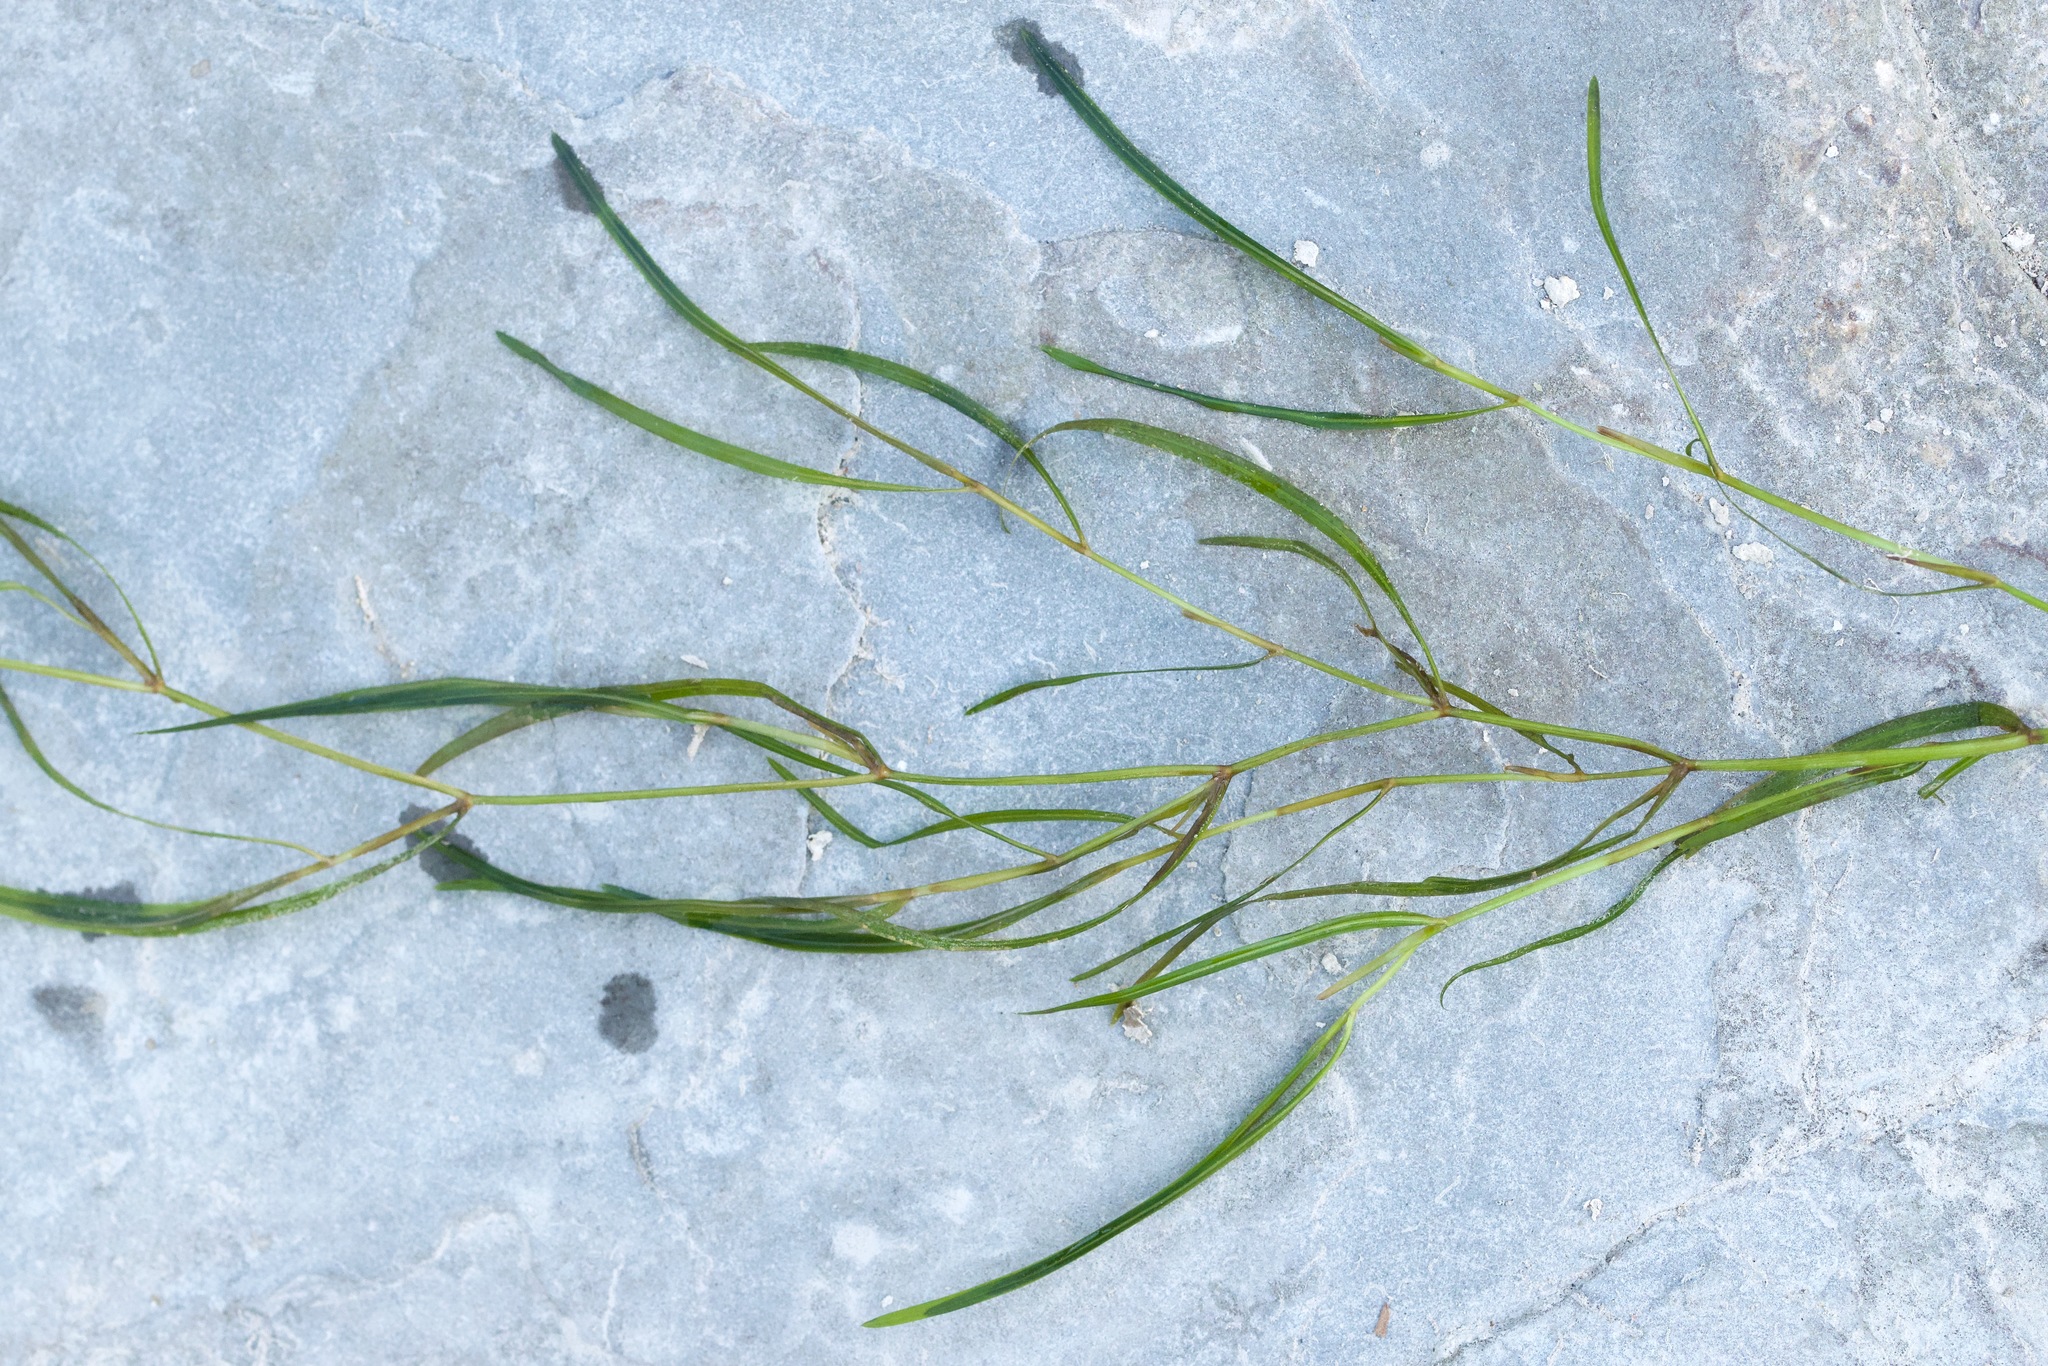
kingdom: Plantae
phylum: Tracheophyta
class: Liliopsida
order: Alismatales
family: Potamogetonaceae
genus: Potamogeton
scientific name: Potamogeton pusillus
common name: Lesser pondweed
